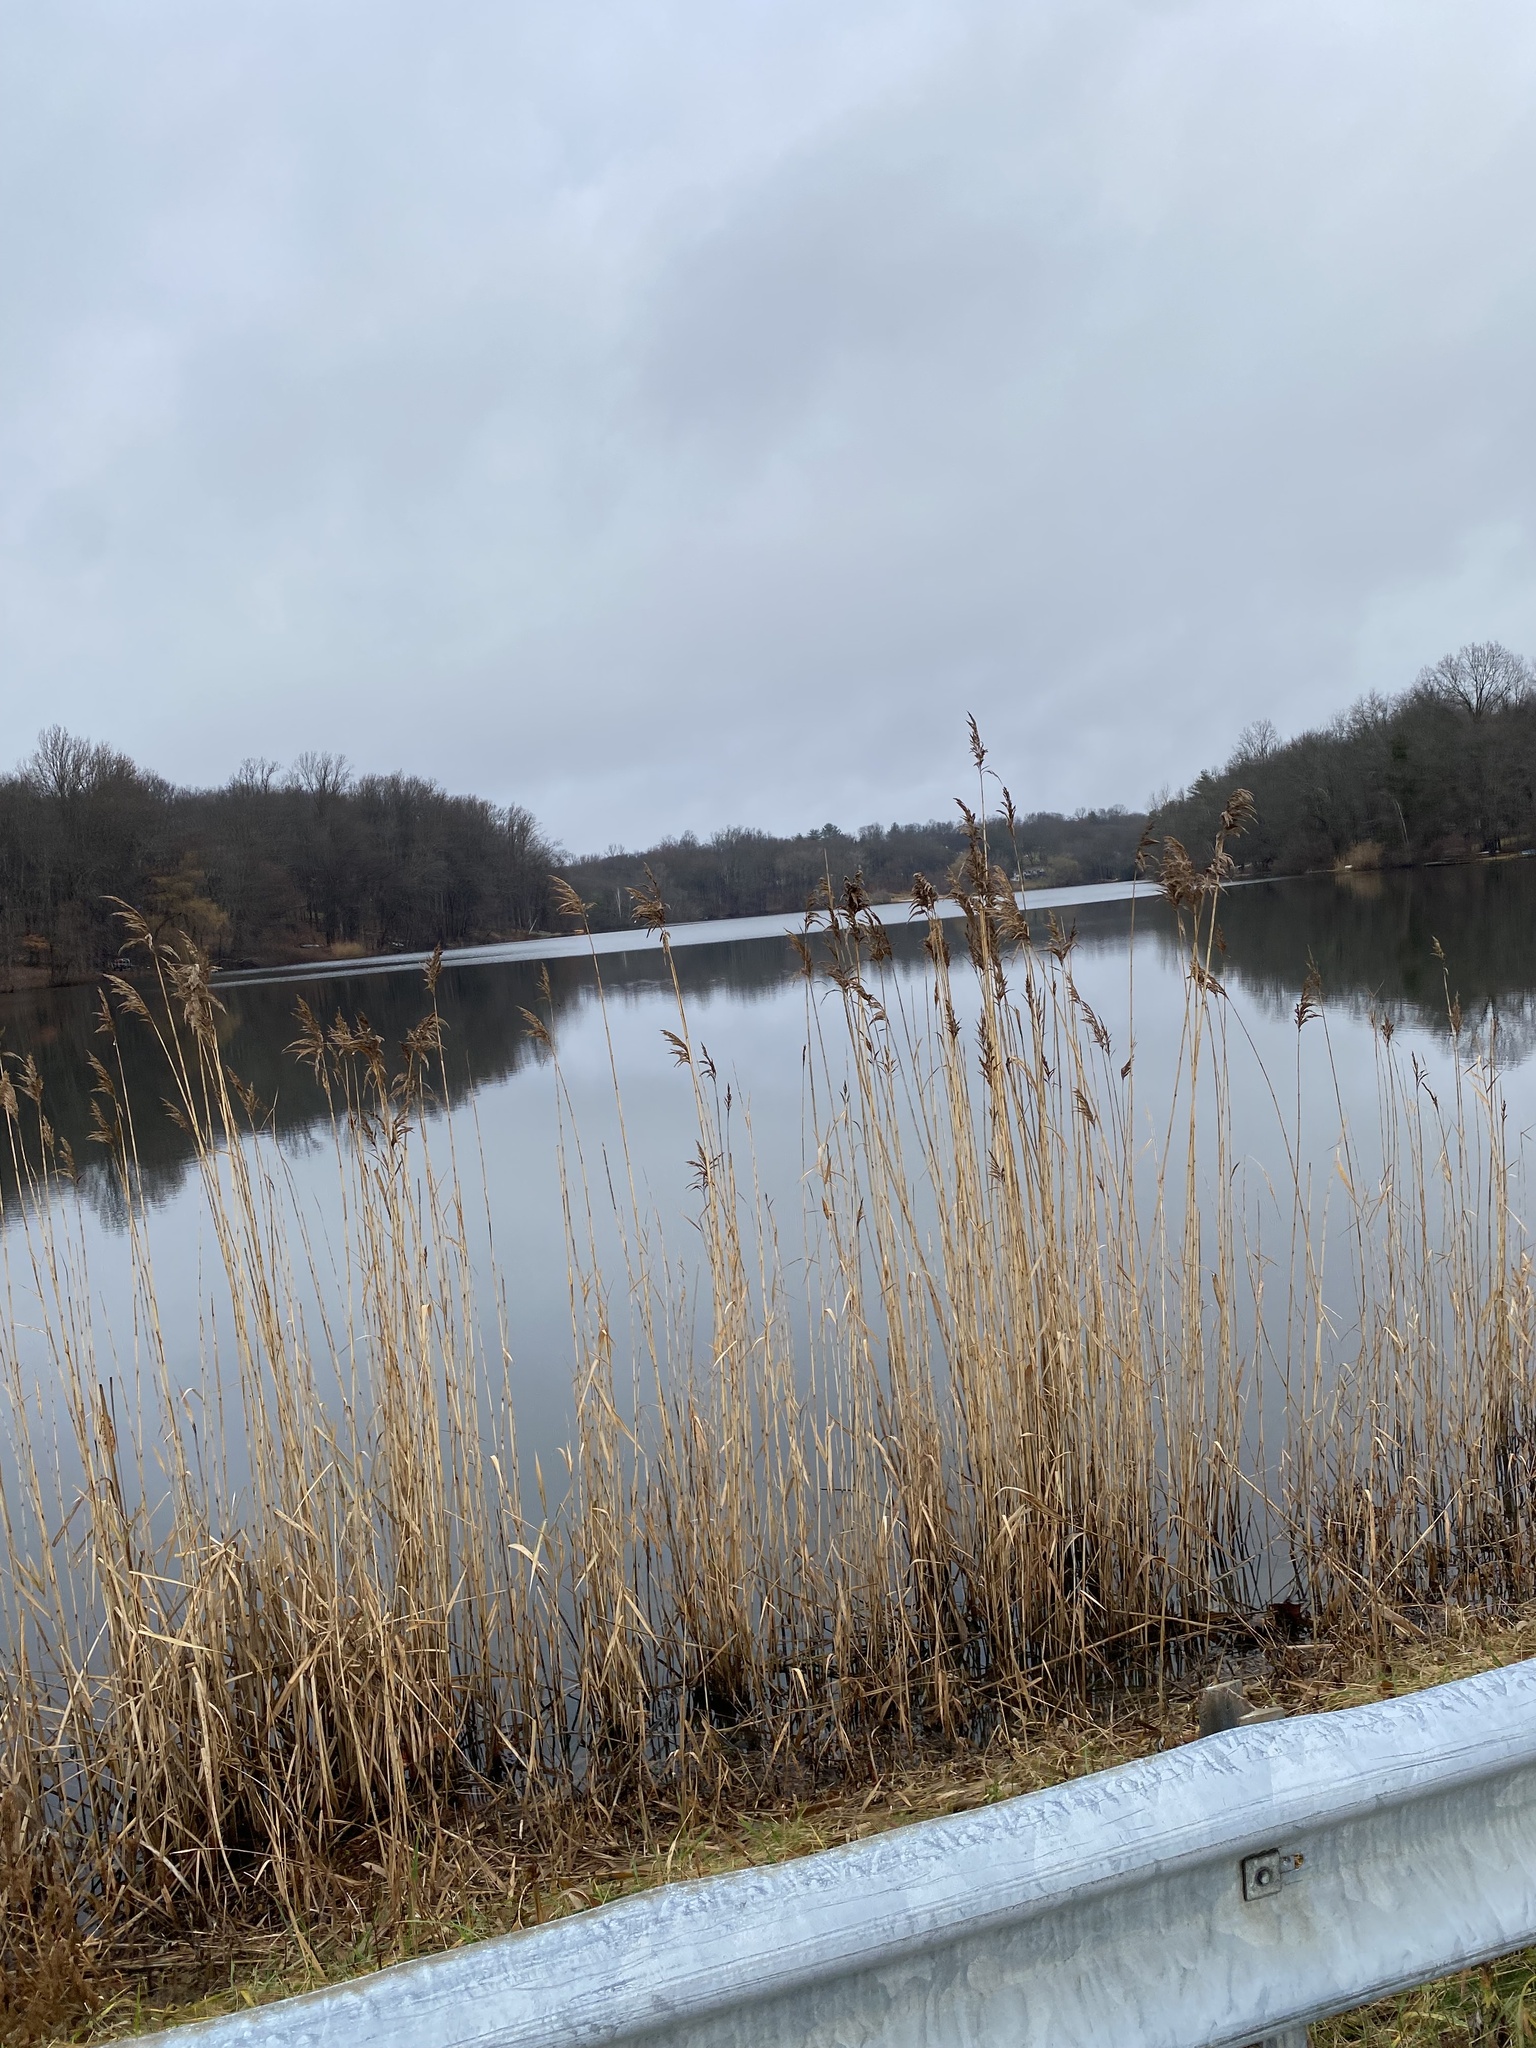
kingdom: Plantae
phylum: Tracheophyta
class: Liliopsida
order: Poales
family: Poaceae
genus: Phragmites
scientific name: Phragmites australis
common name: Common reed
